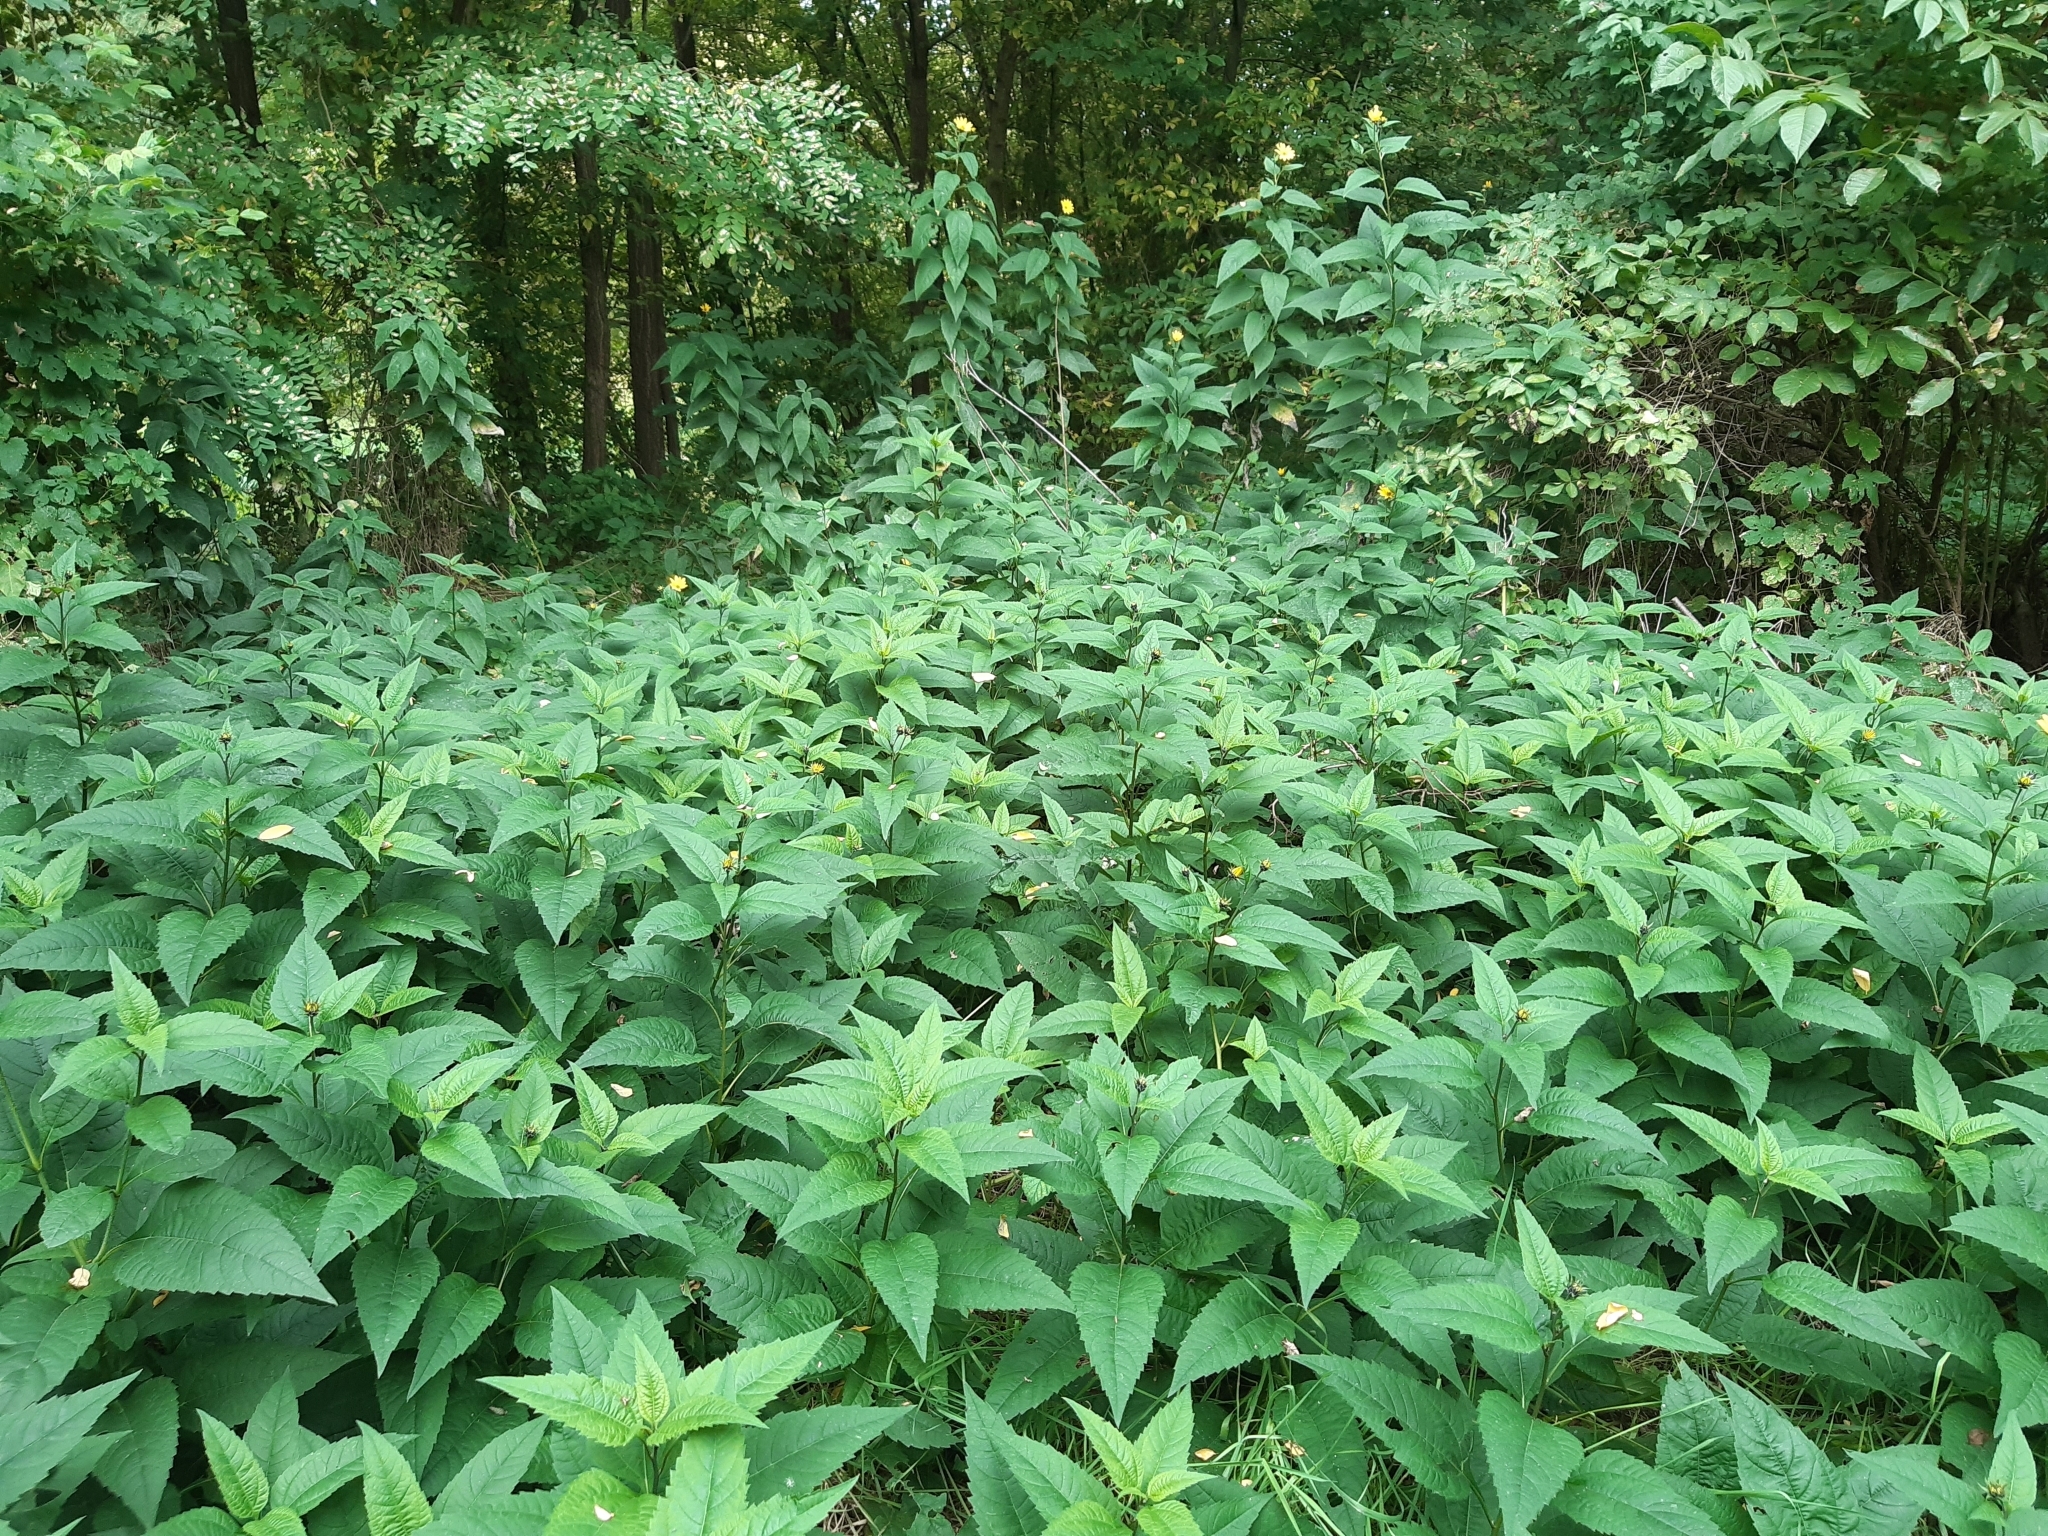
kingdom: Plantae
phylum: Tracheophyta
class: Magnoliopsida
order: Asterales
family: Asteraceae
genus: Helianthus
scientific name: Helianthus tuberosus
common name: Jerusalem artichoke
